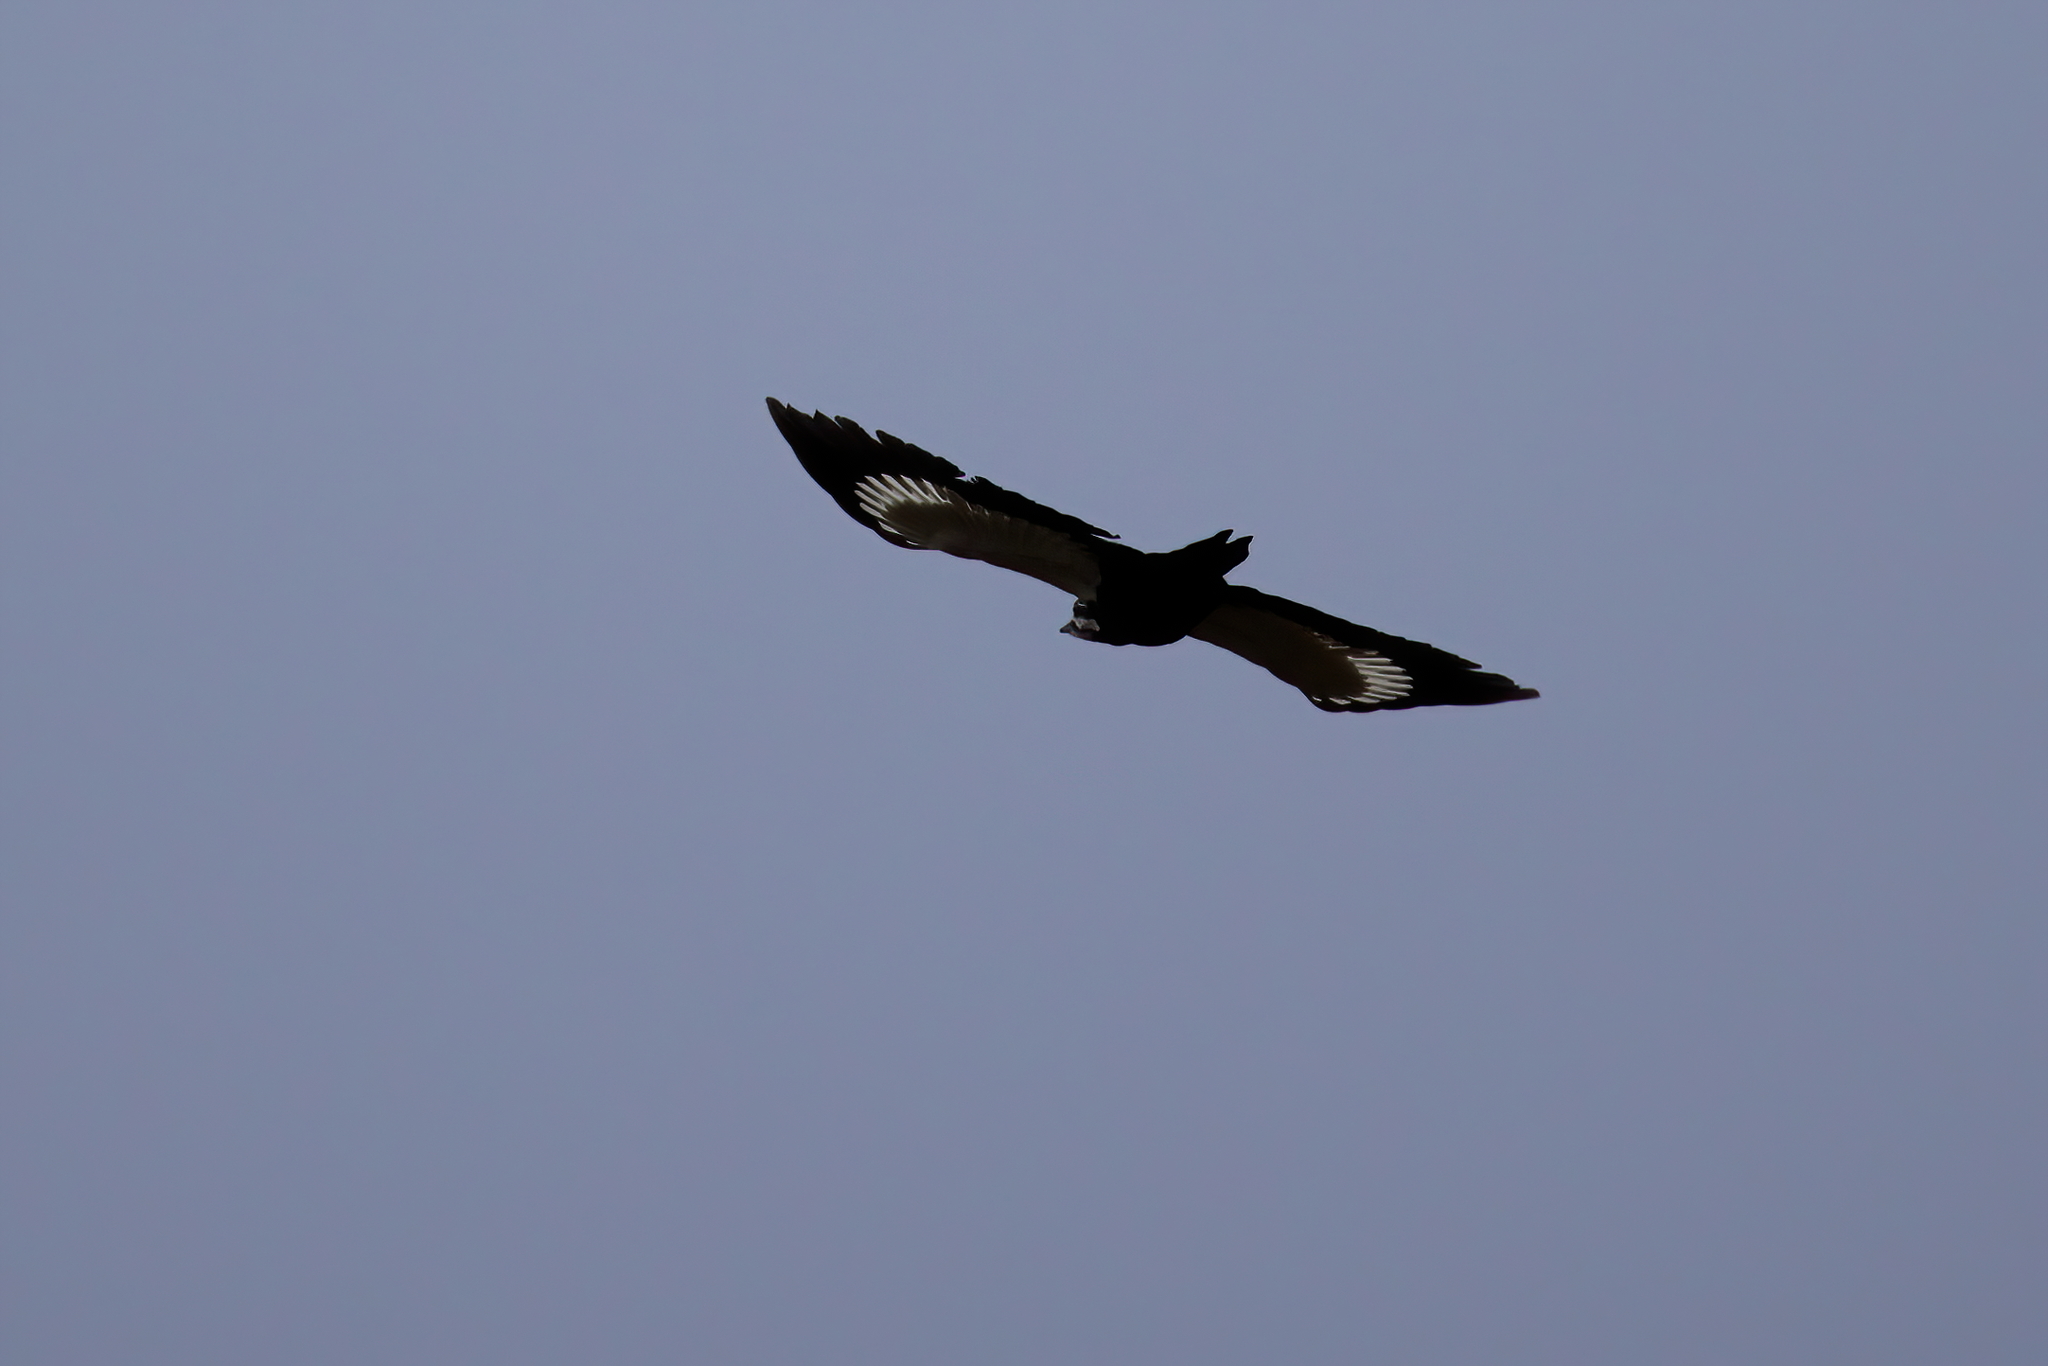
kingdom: Animalia
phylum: Chordata
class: Aves
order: Piciformes
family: Picidae
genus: Dryocopus
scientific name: Dryocopus pileatus
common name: Pileated woodpecker
